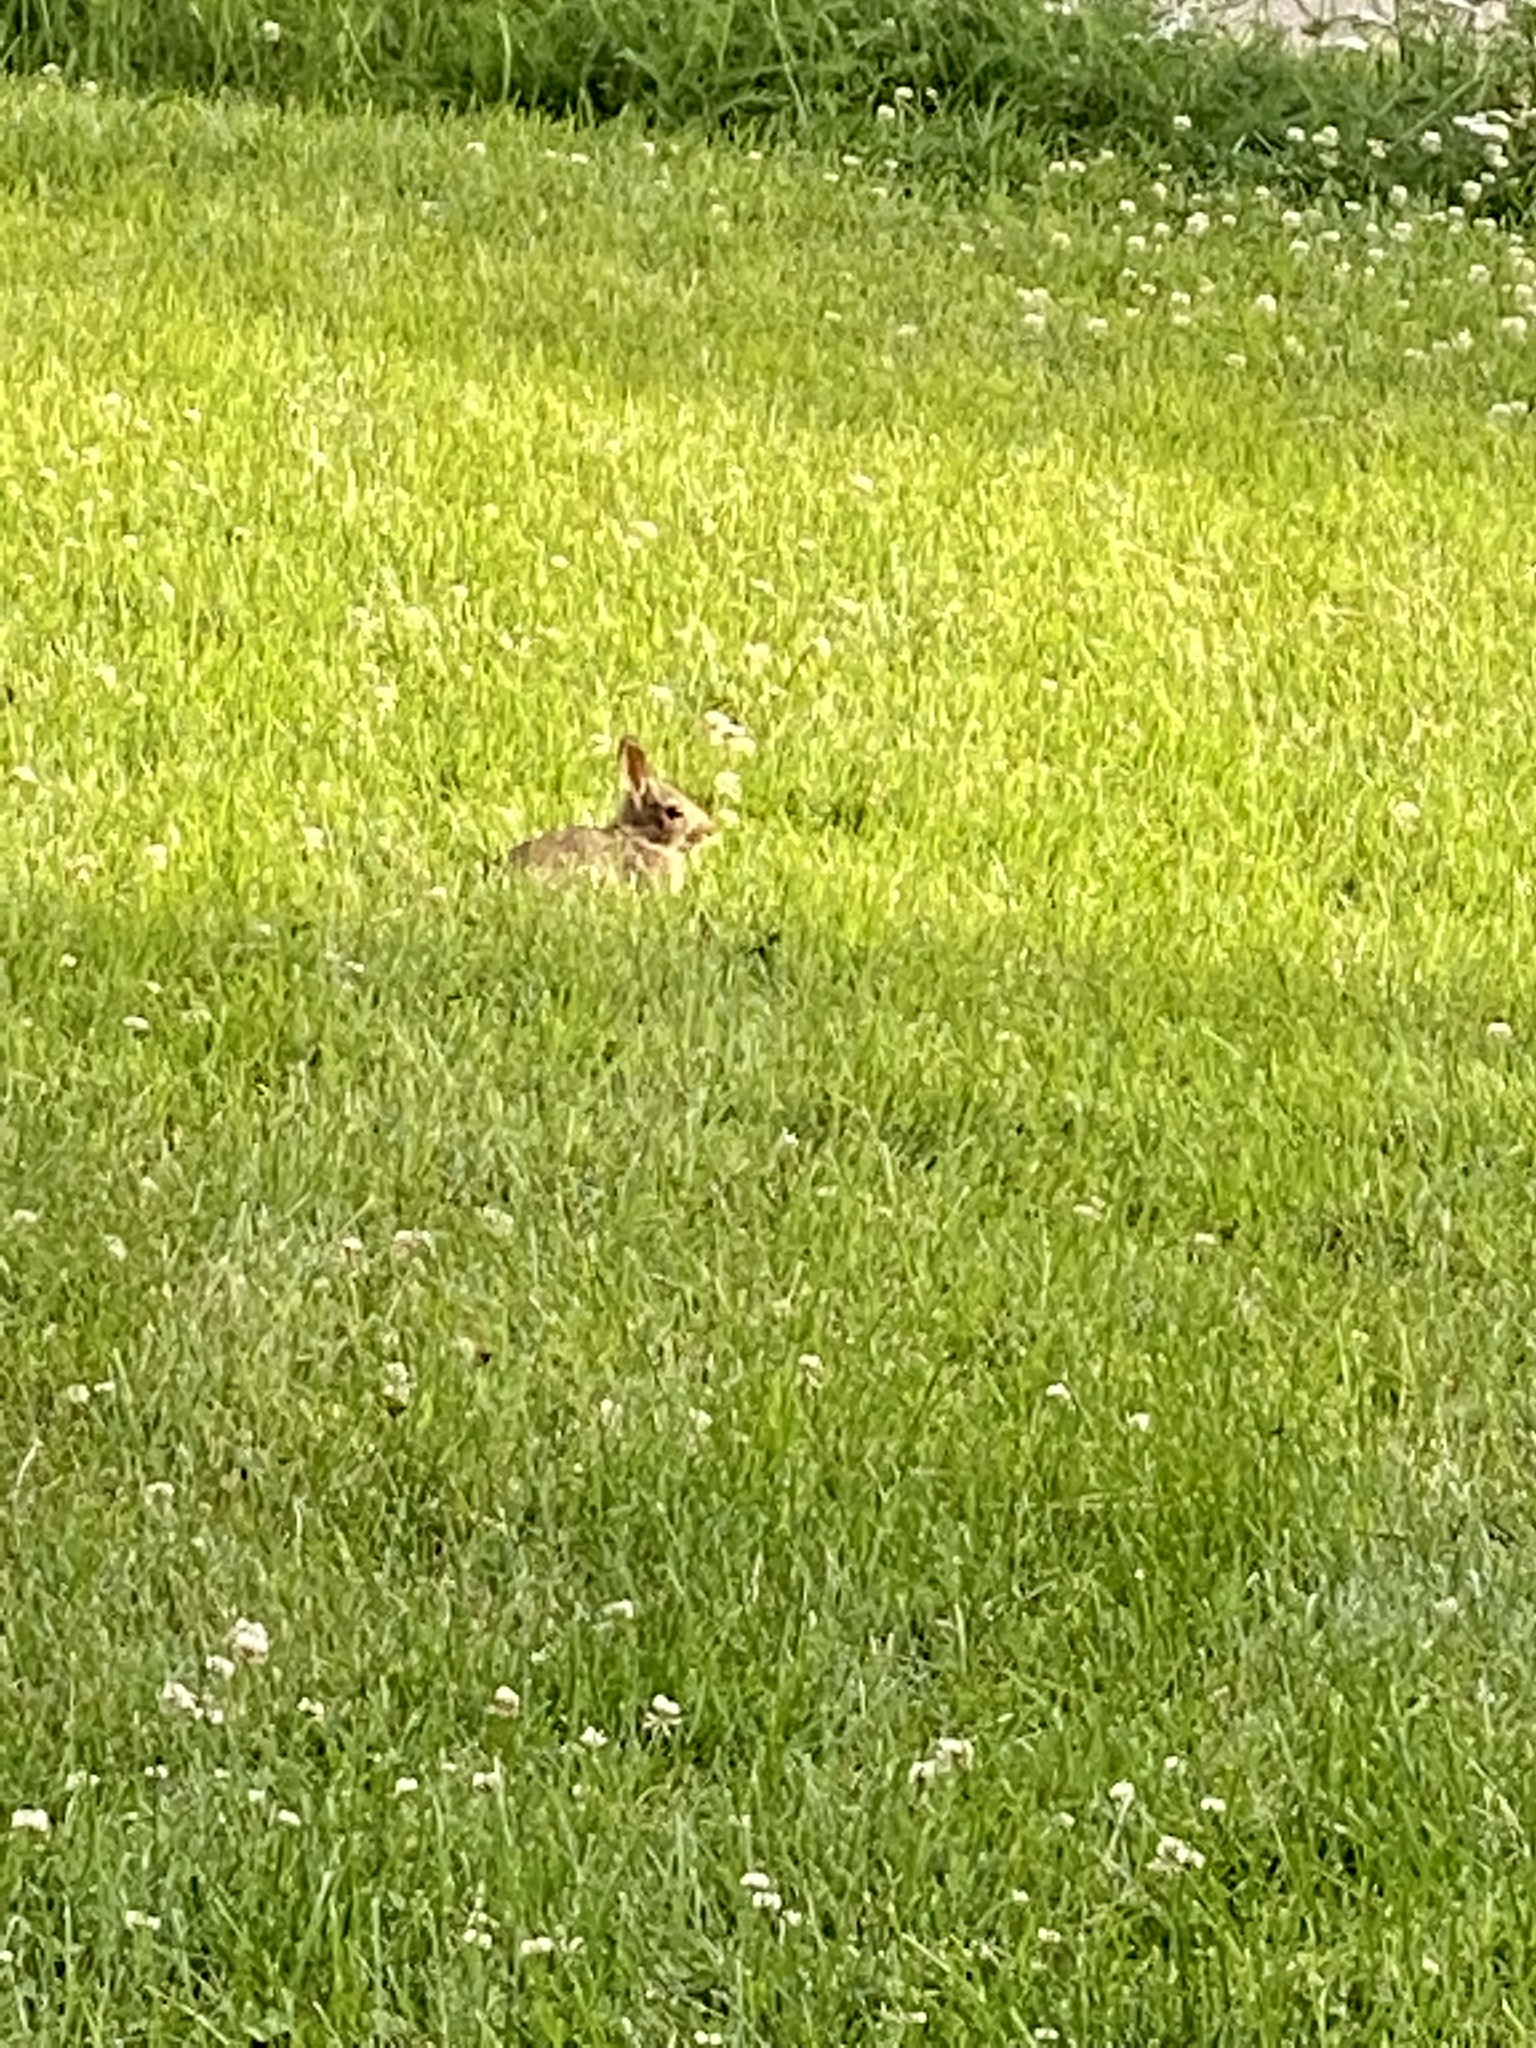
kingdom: Animalia
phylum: Chordata
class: Mammalia
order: Lagomorpha
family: Leporidae
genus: Sylvilagus
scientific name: Sylvilagus floridanus
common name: Eastern cottontail
